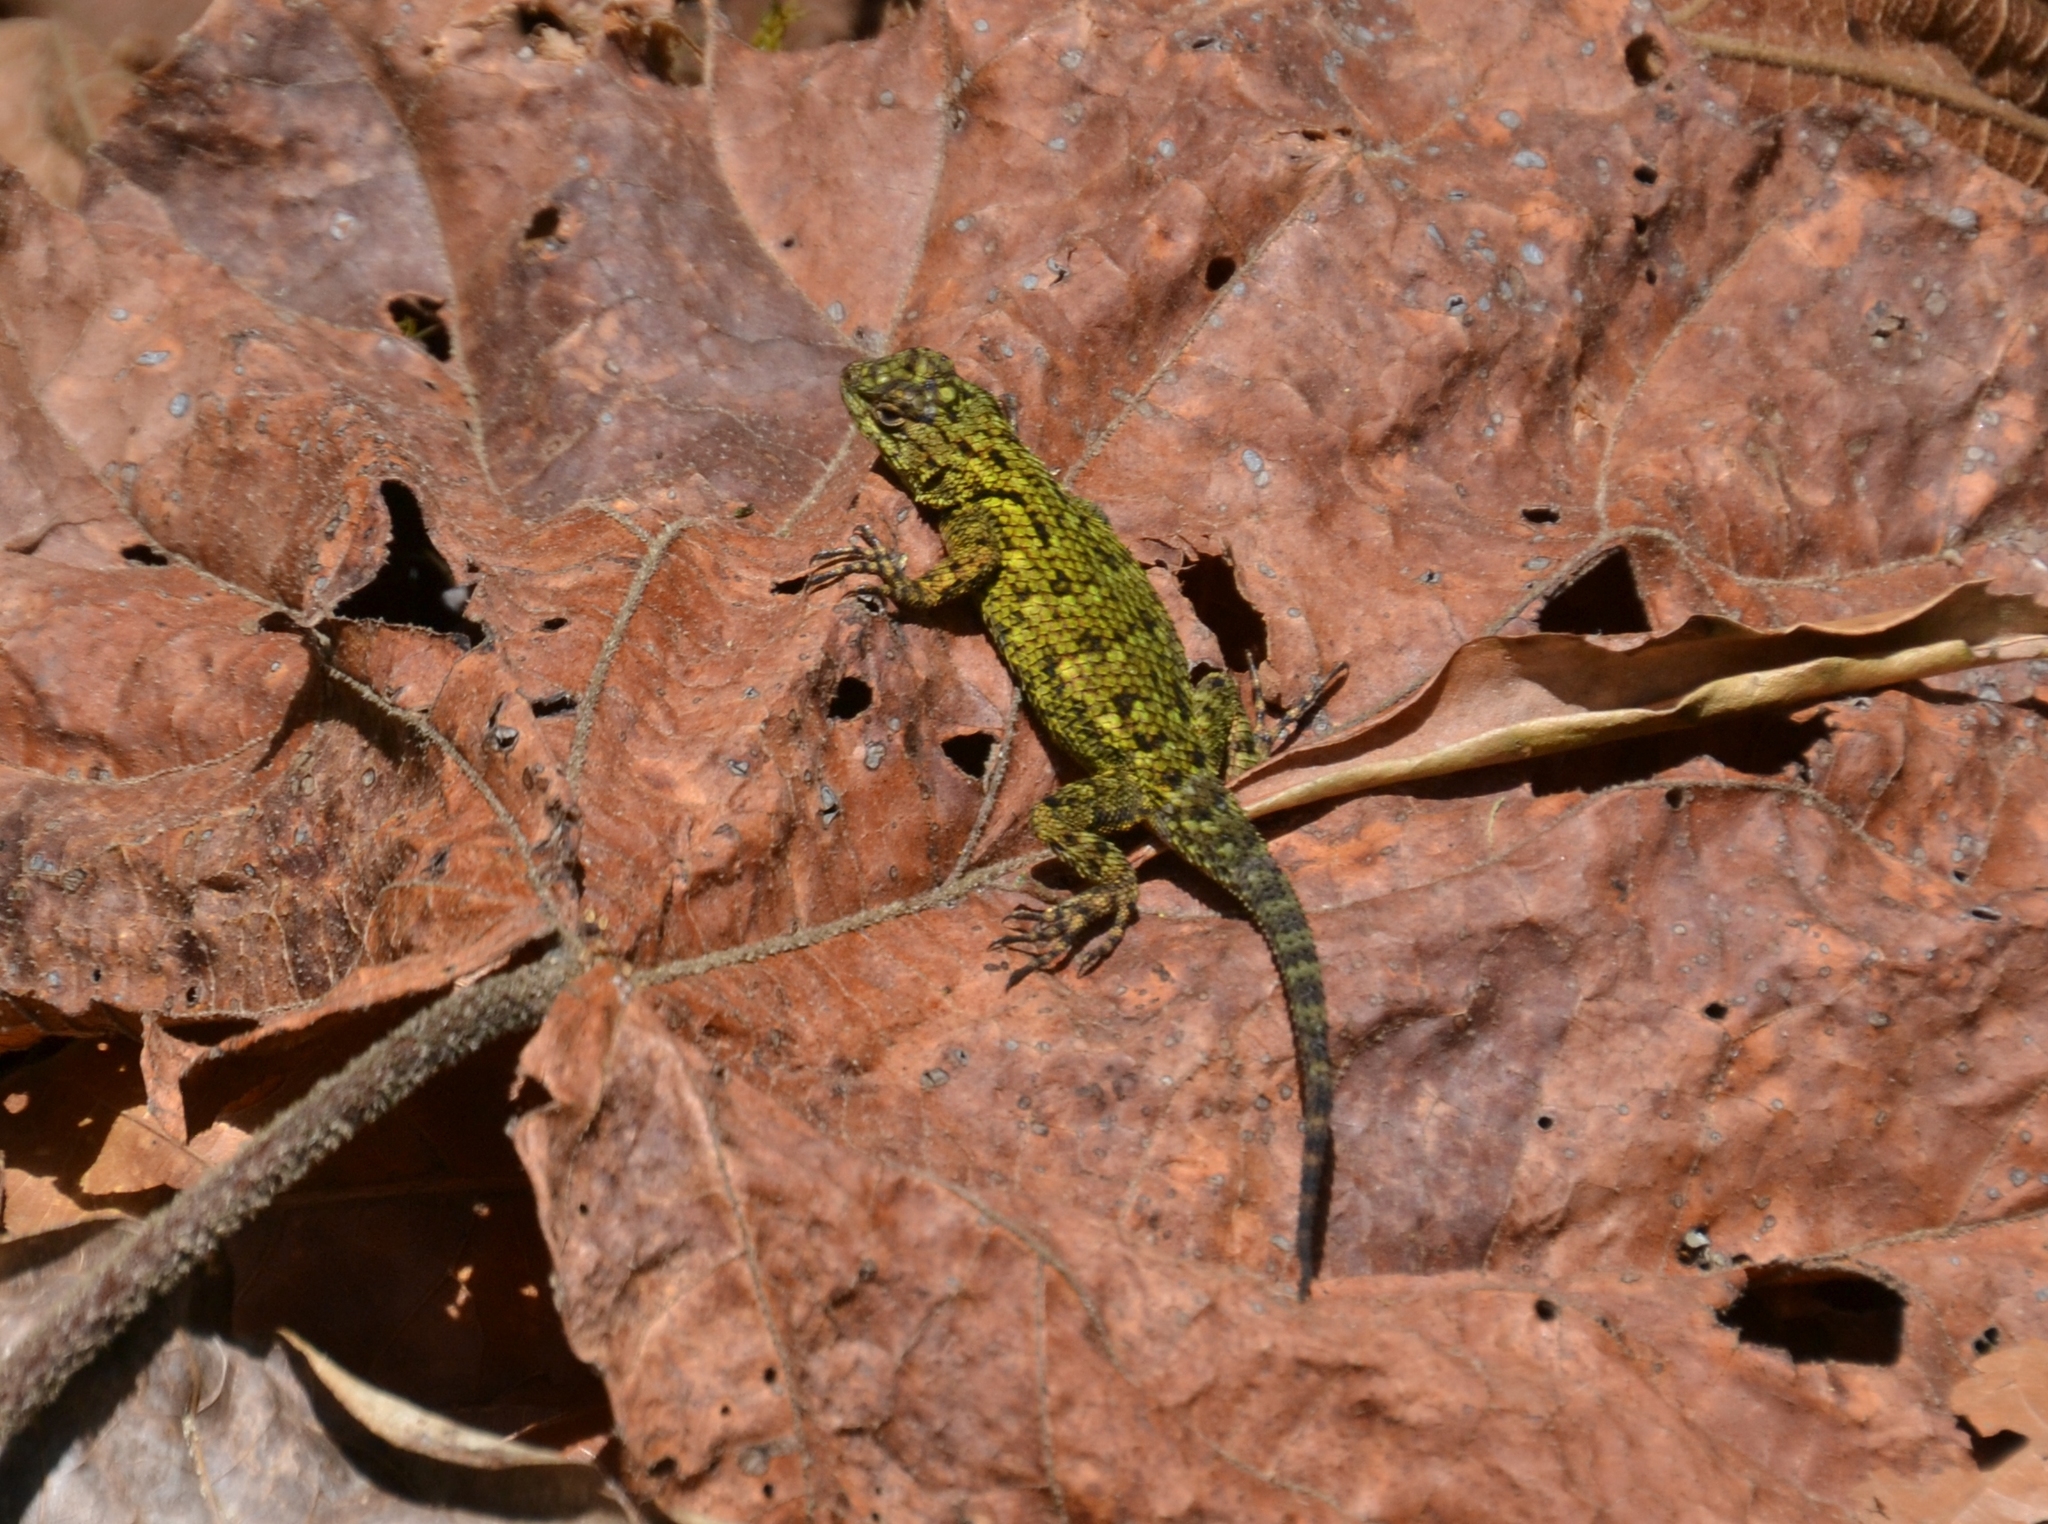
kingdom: Animalia
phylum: Chordata
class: Squamata
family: Phrynosomatidae
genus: Sceloporus
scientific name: Sceloporus malachiticus
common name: Green spiny lizard
